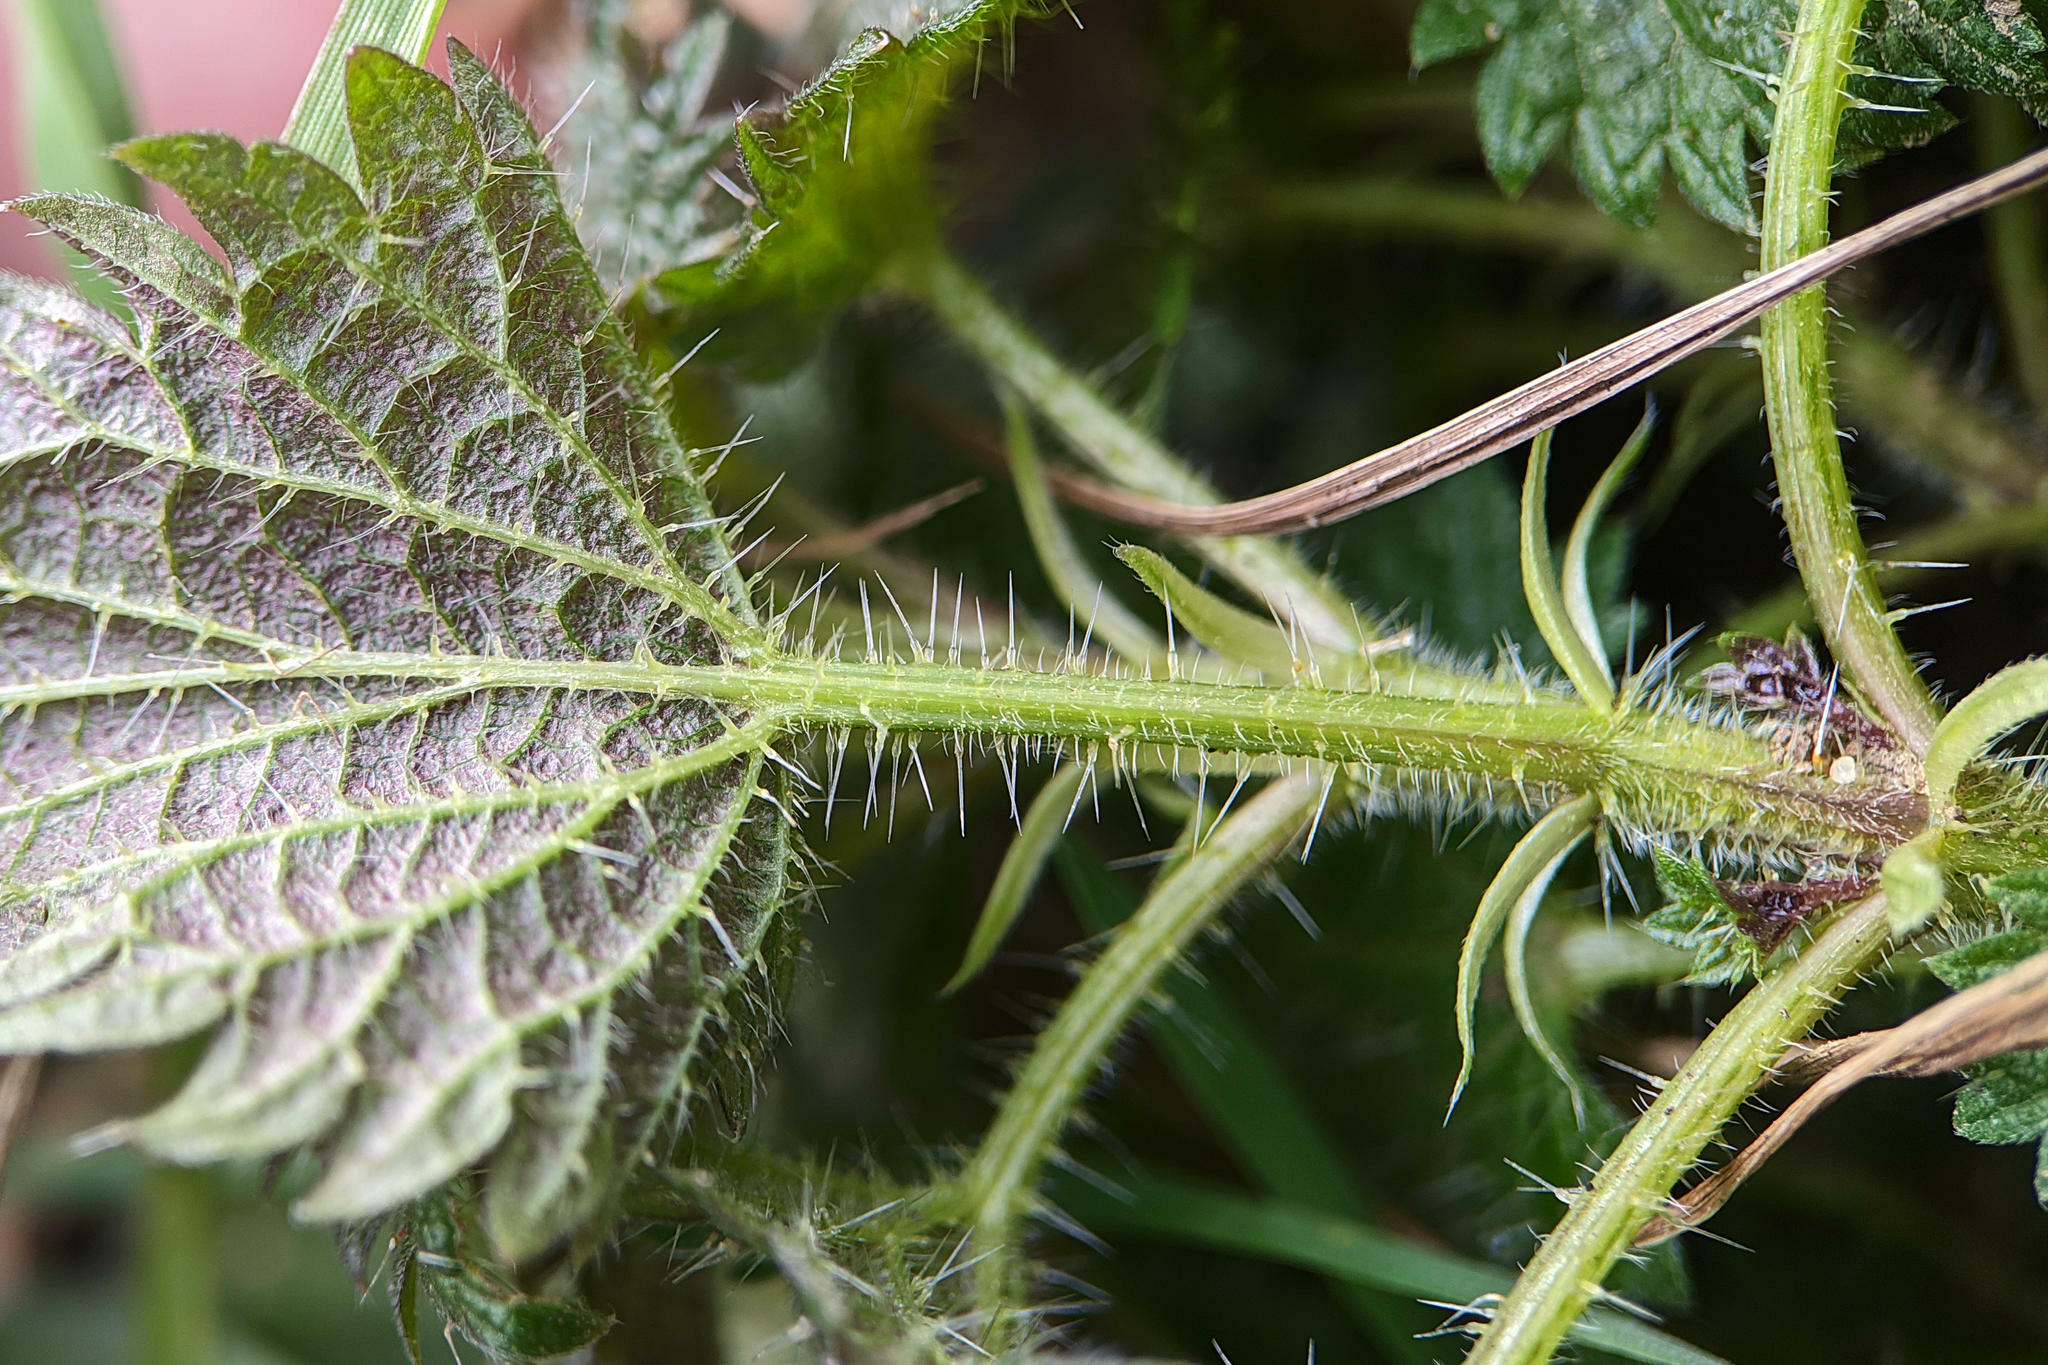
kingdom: Plantae
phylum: Tracheophyta
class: Magnoliopsida
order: Rosales
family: Urticaceae
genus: Urtica
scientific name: Urtica dioica
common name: Common nettle
